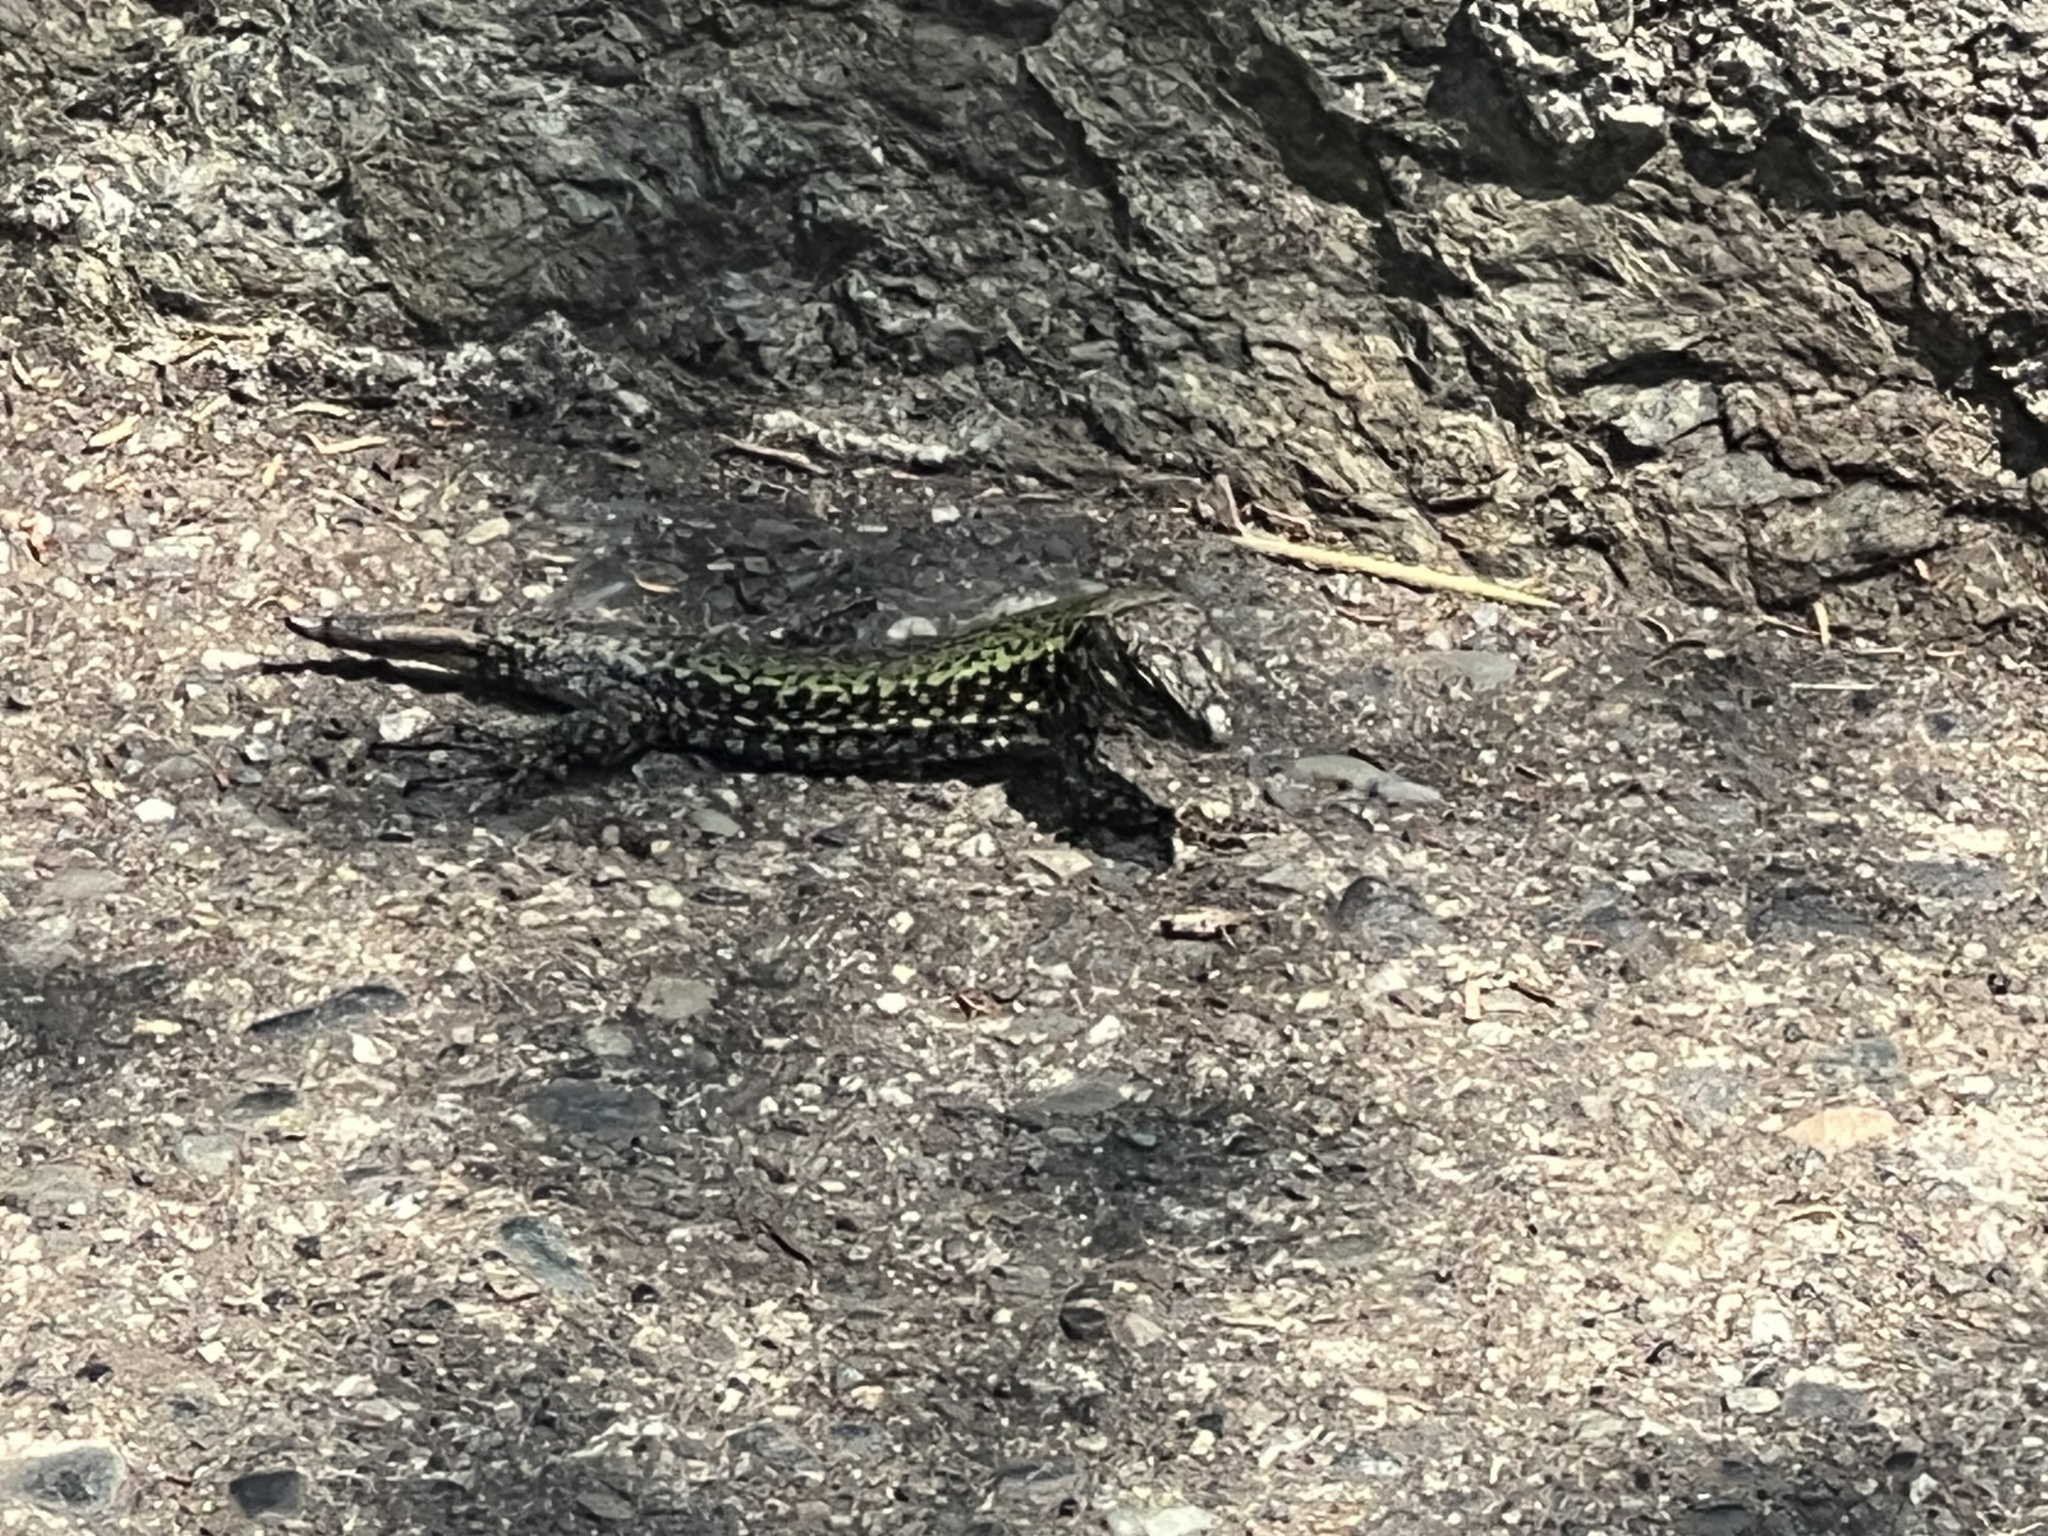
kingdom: Animalia
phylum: Chordata
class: Squamata
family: Lacertidae
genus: Podarcis
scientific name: Podarcis muralis
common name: Common wall lizard
